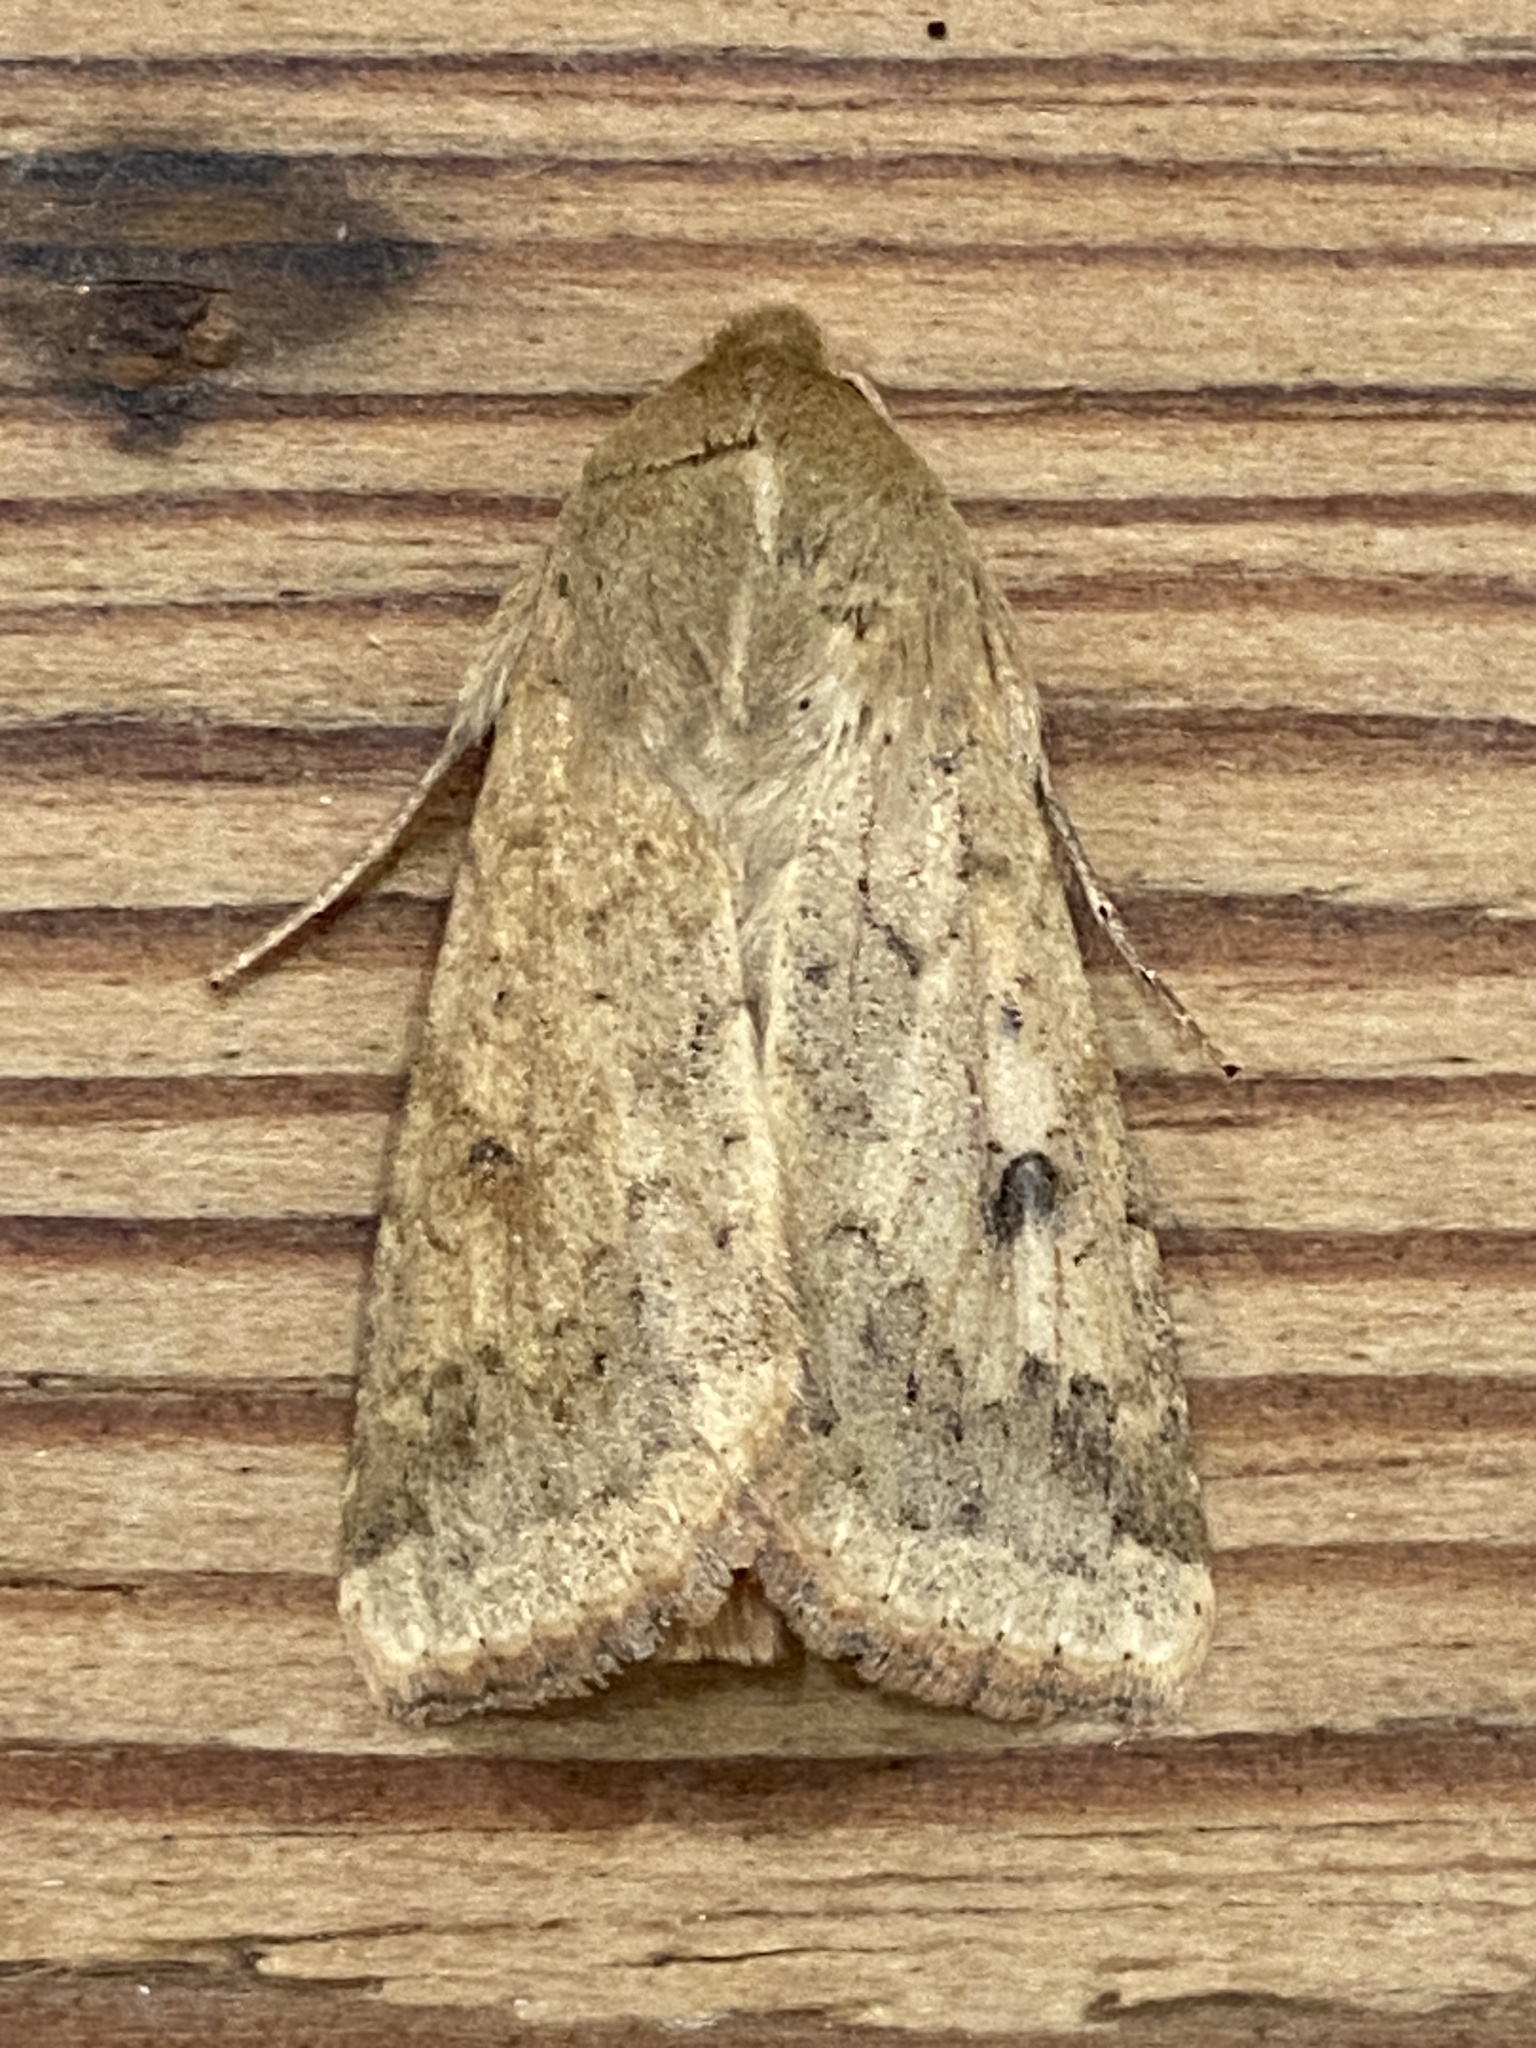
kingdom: Animalia
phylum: Arthropoda
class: Insecta
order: Lepidoptera
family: Noctuidae
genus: Helicoverpa
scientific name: Helicoverpa armigera
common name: Cotton bollworm
